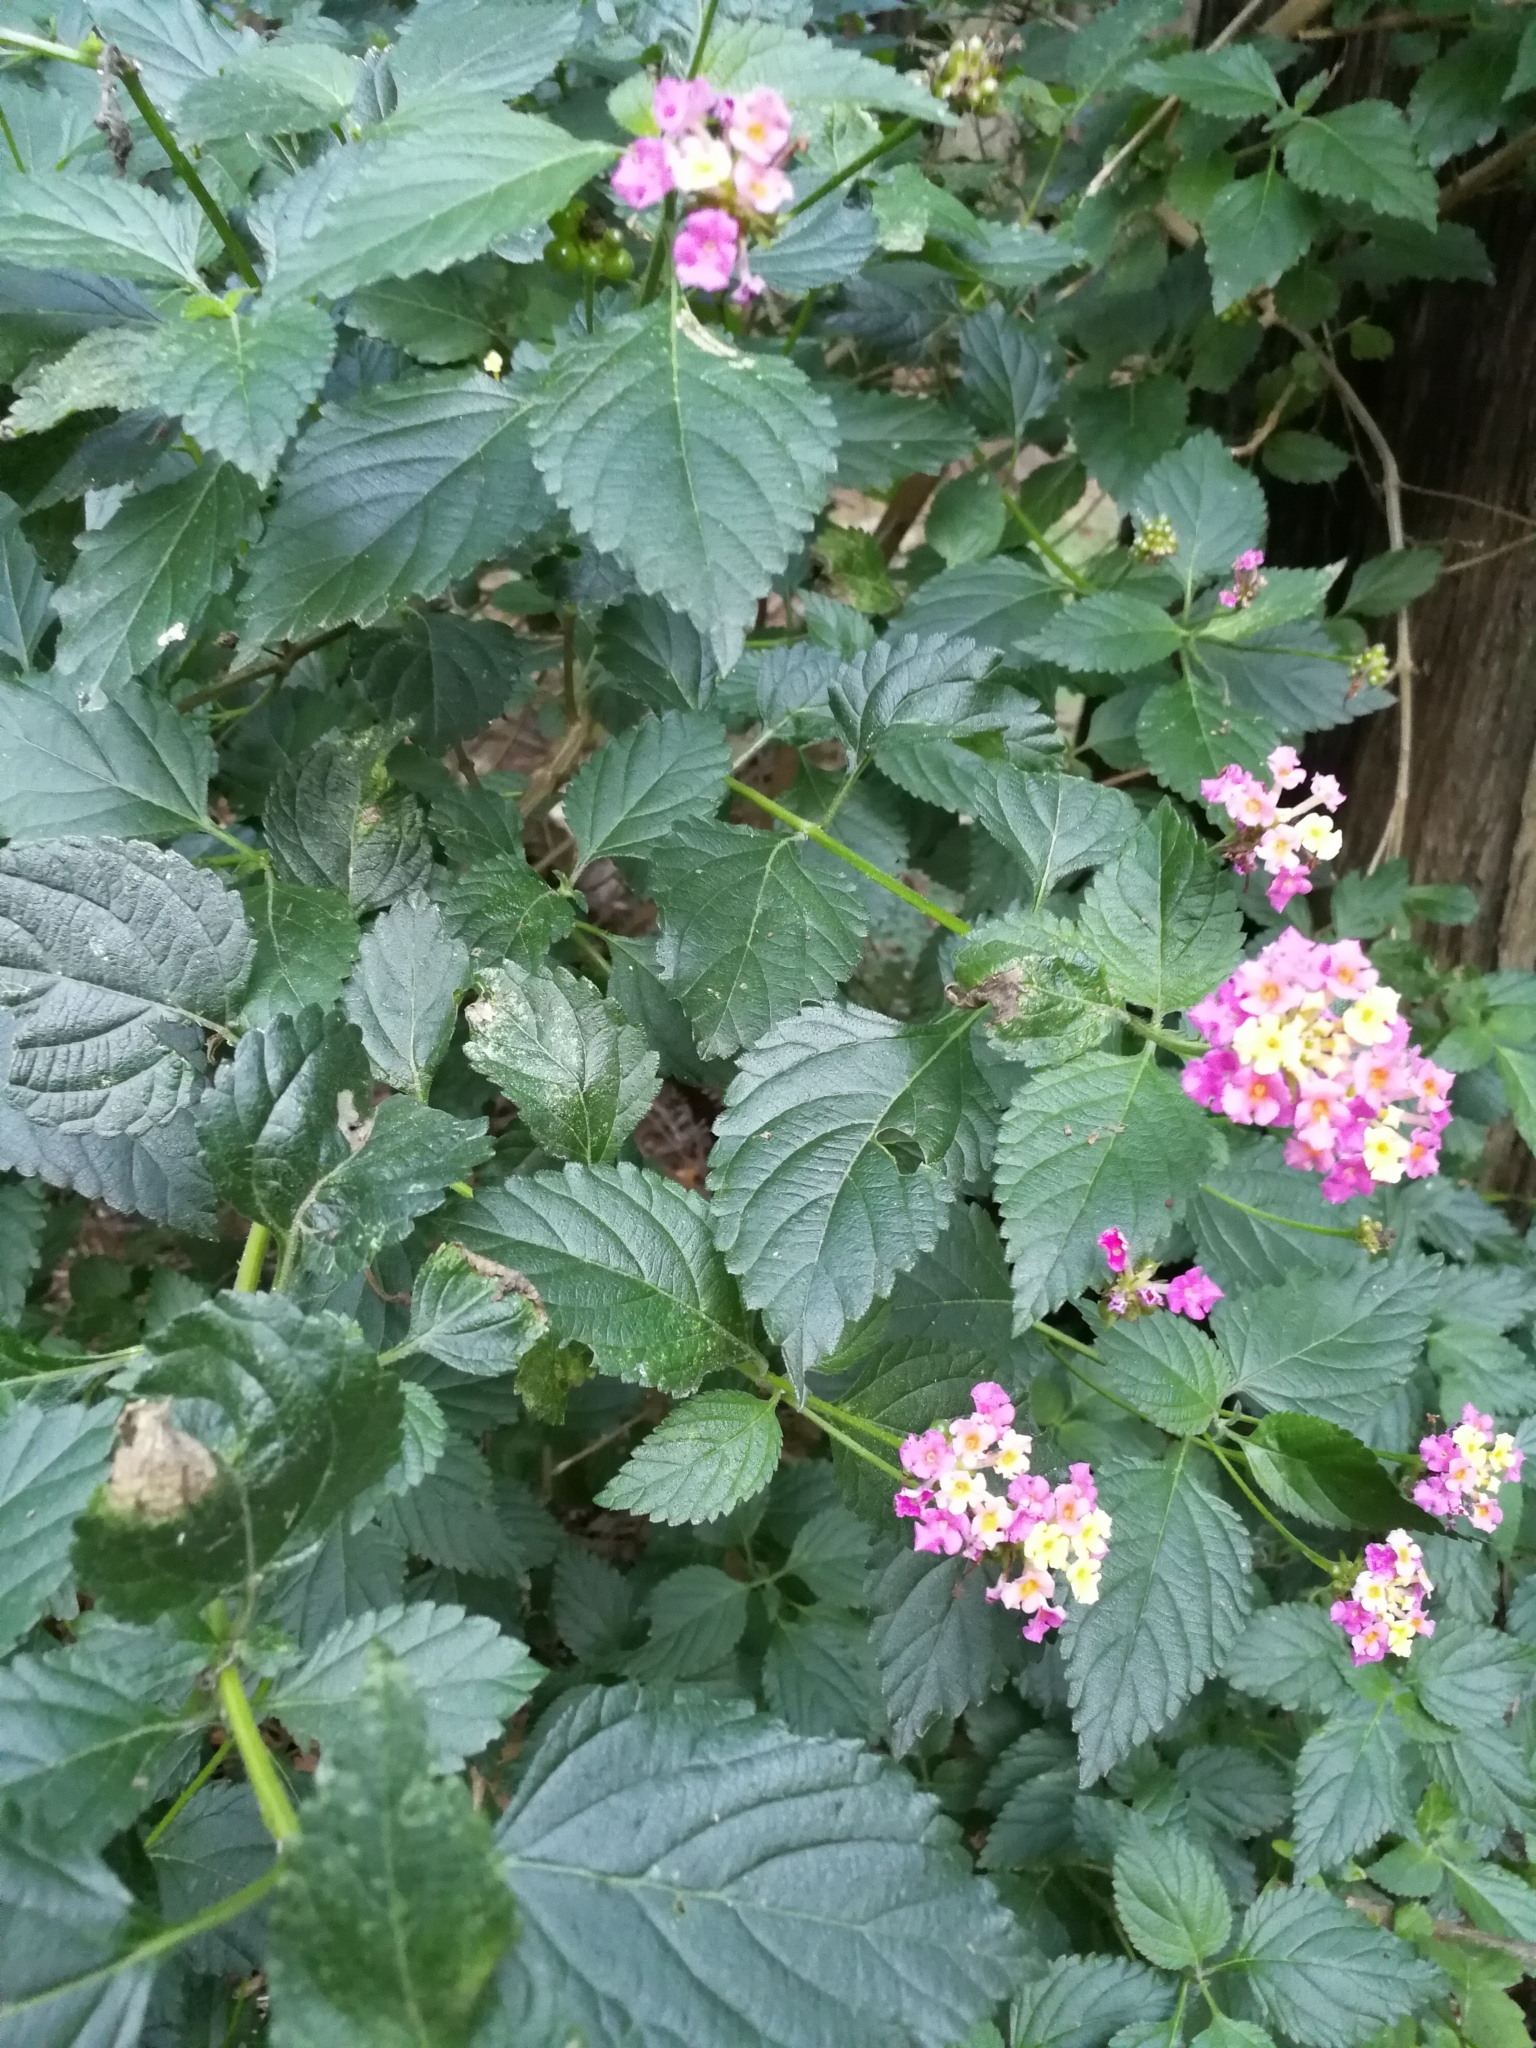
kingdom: Plantae
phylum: Tracheophyta
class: Magnoliopsida
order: Lamiales
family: Verbenaceae
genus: Lantana
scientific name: Lantana camara
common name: Lantana
